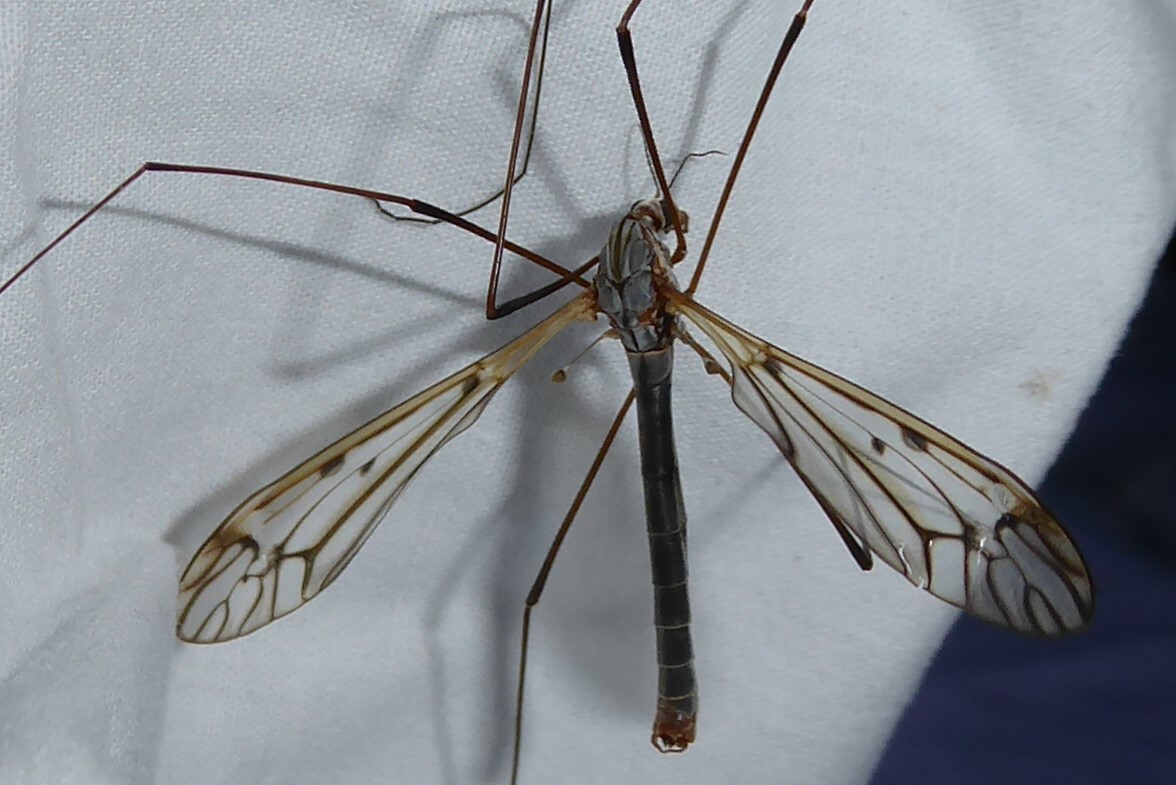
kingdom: Animalia
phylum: Arthropoda
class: Insecta
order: Diptera
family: Tipulidae
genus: Zelandotipula
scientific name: Zelandotipula novarae
